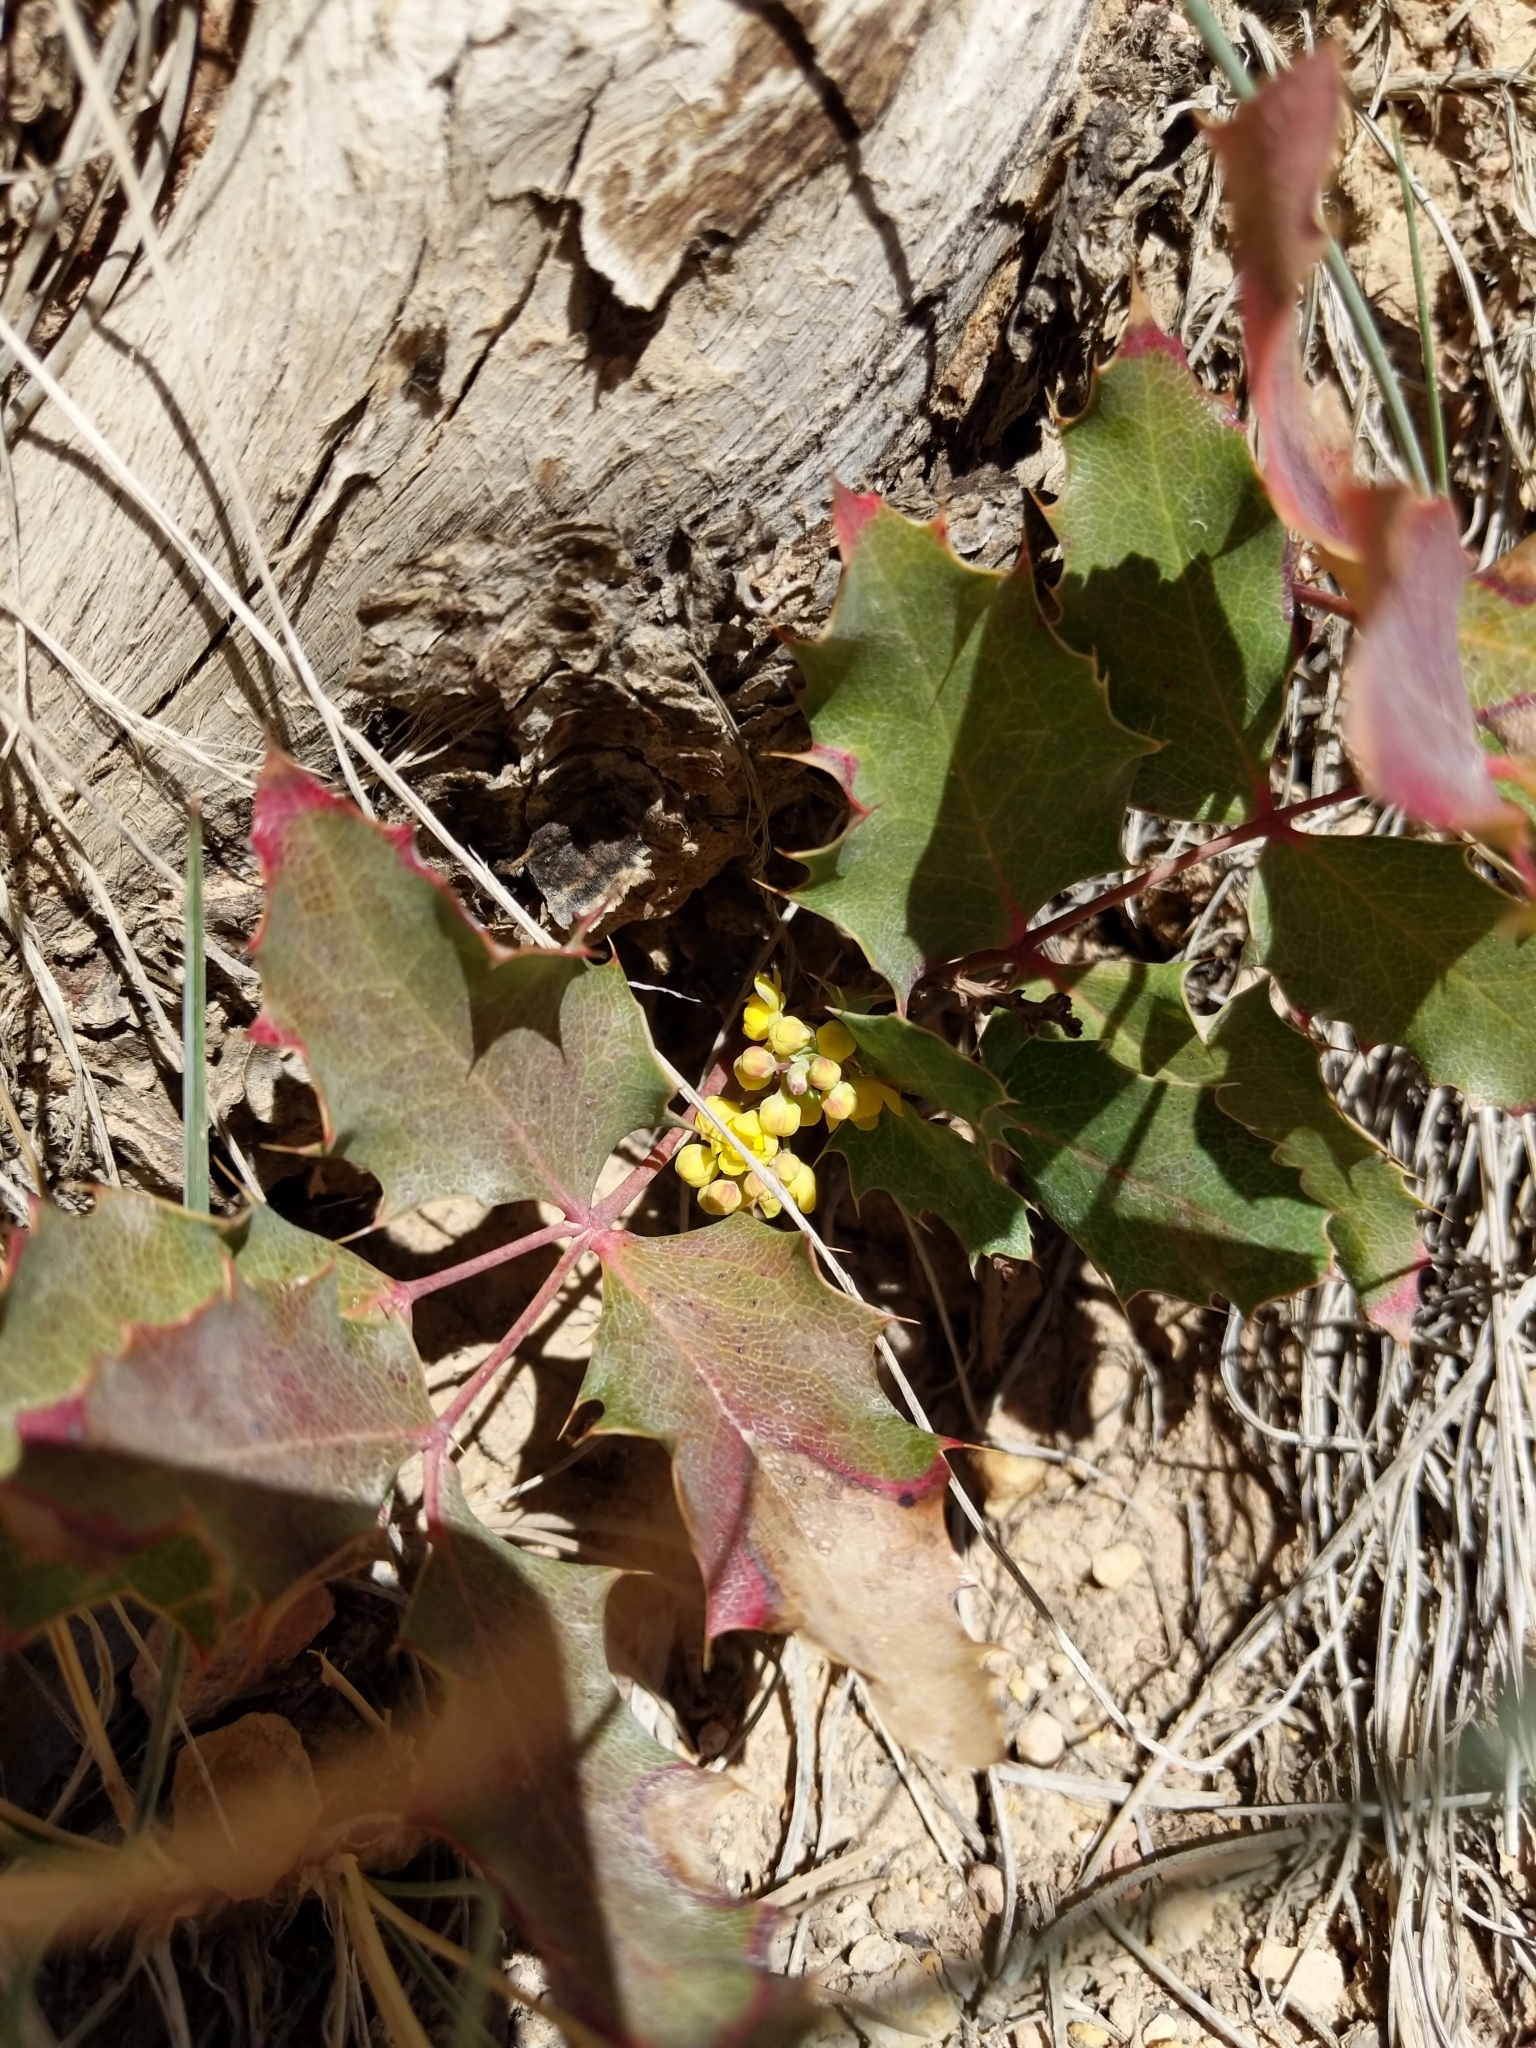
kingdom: Plantae
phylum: Tracheophyta
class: Magnoliopsida
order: Ranunculales
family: Berberidaceae
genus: Mahonia
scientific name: Mahonia repens
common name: Creeping oregon-grape
